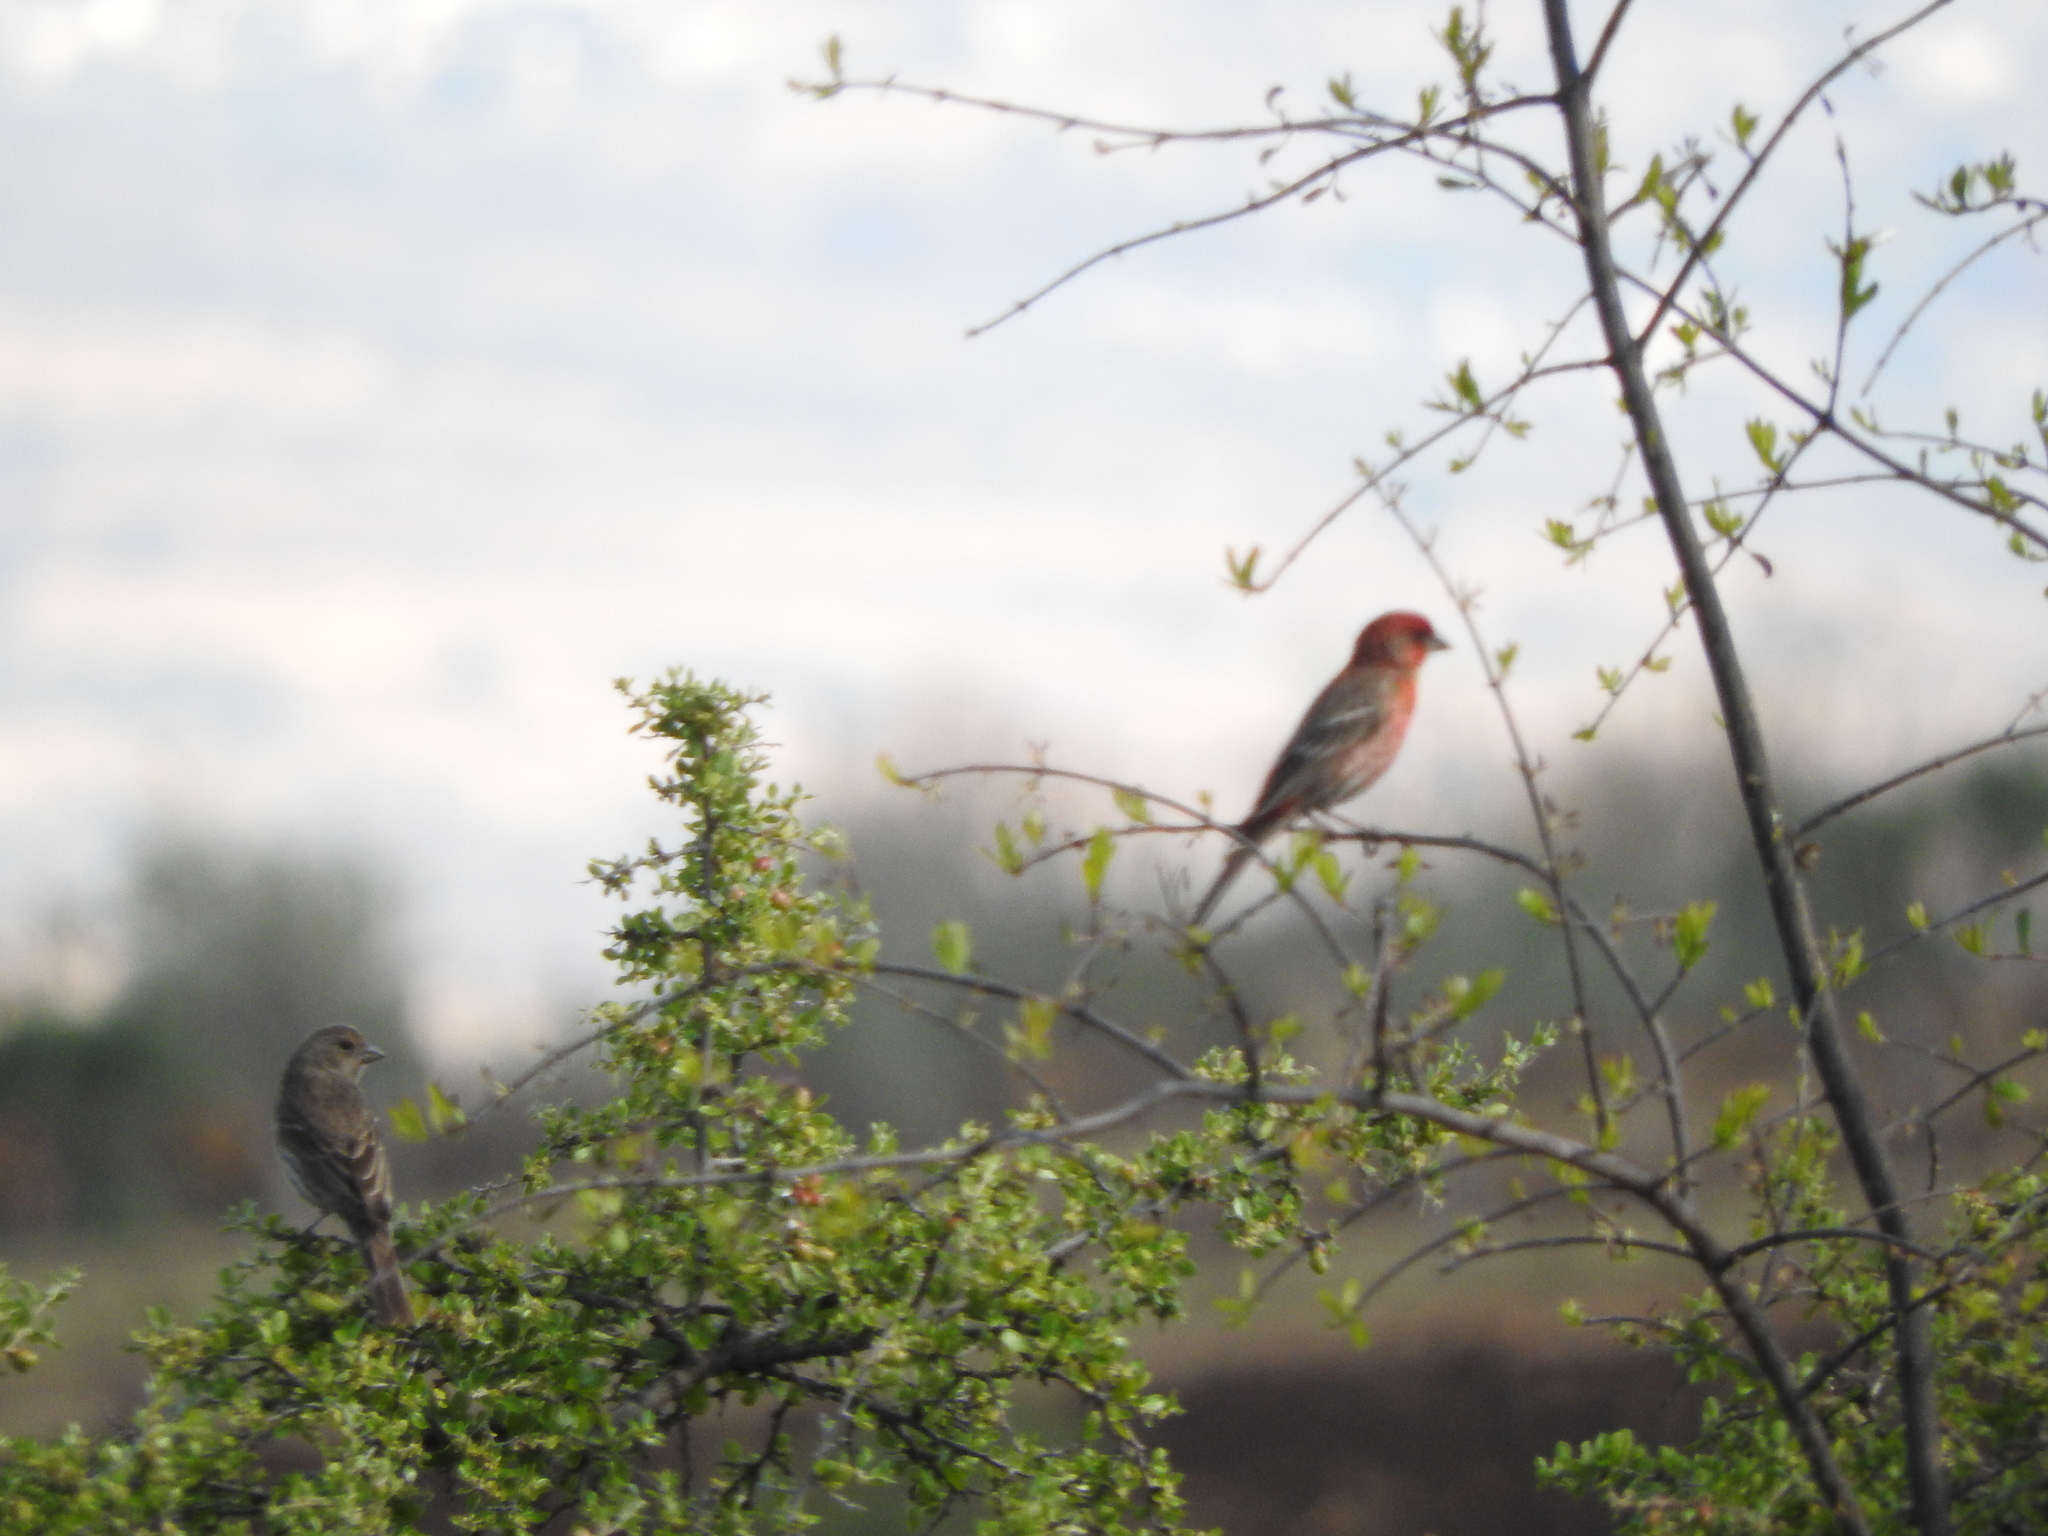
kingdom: Animalia
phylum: Chordata
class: Aves
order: Passeriformes
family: Fringillidae
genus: Haemorhous
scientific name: Haemorhous mexicanus
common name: House finch
